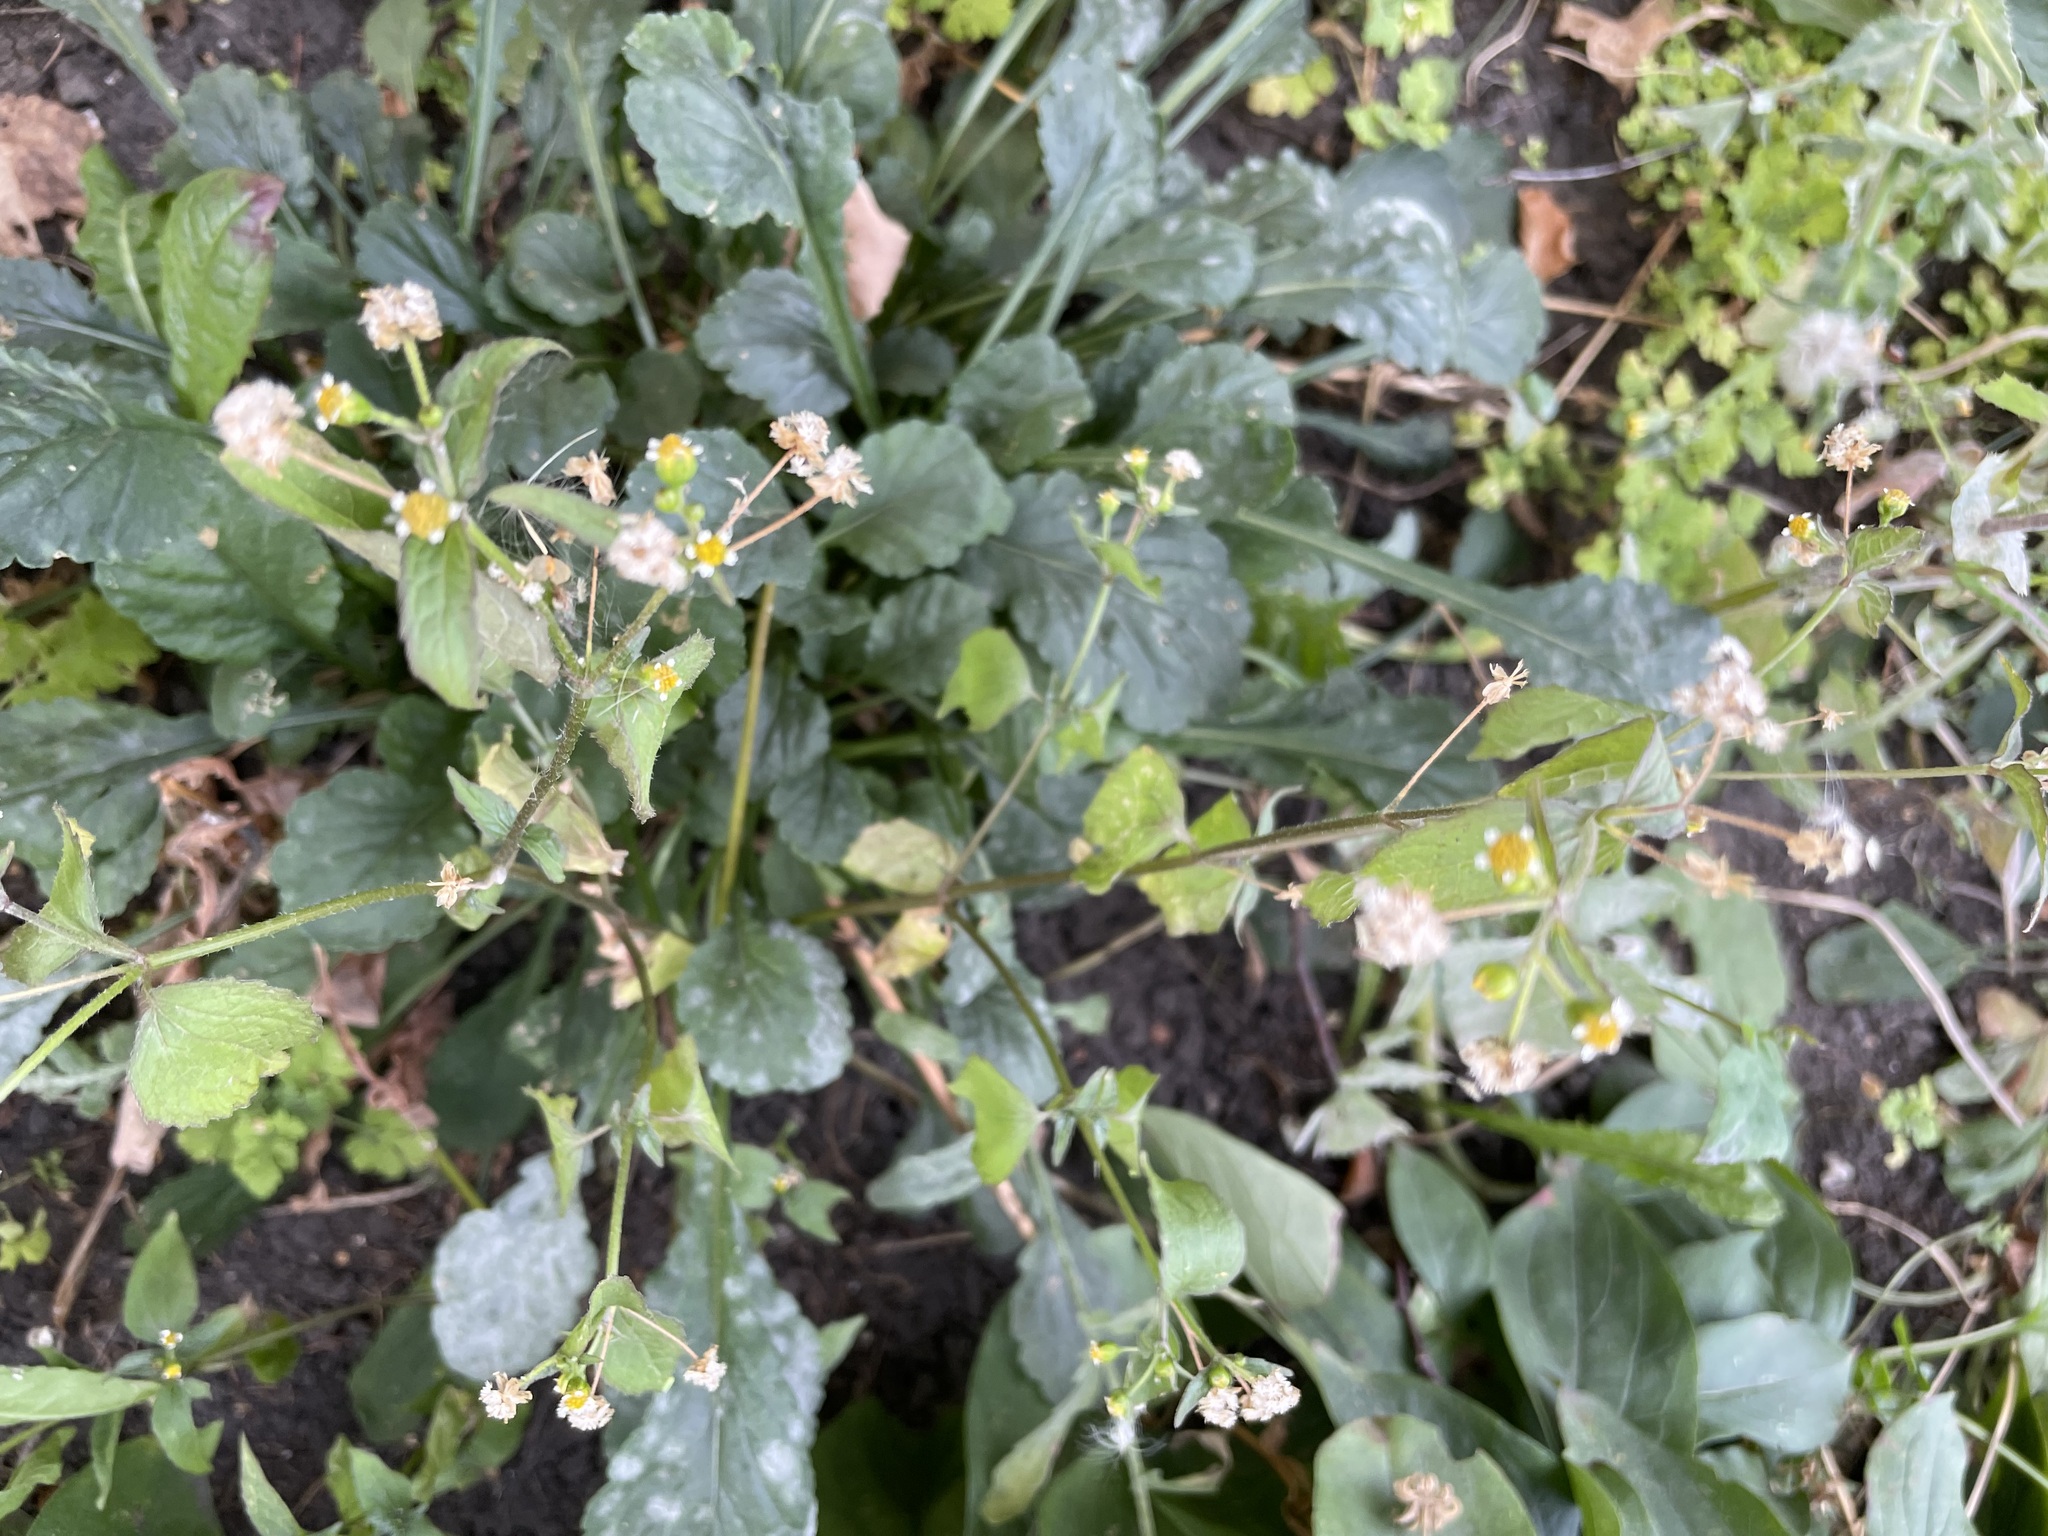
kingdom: Plantae
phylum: Tracheophyta
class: Magnoliopsida
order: Asterales
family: Asteraceae
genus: Galinsoga
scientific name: Galinsoga quadriradiata
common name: Shaggy soldier
